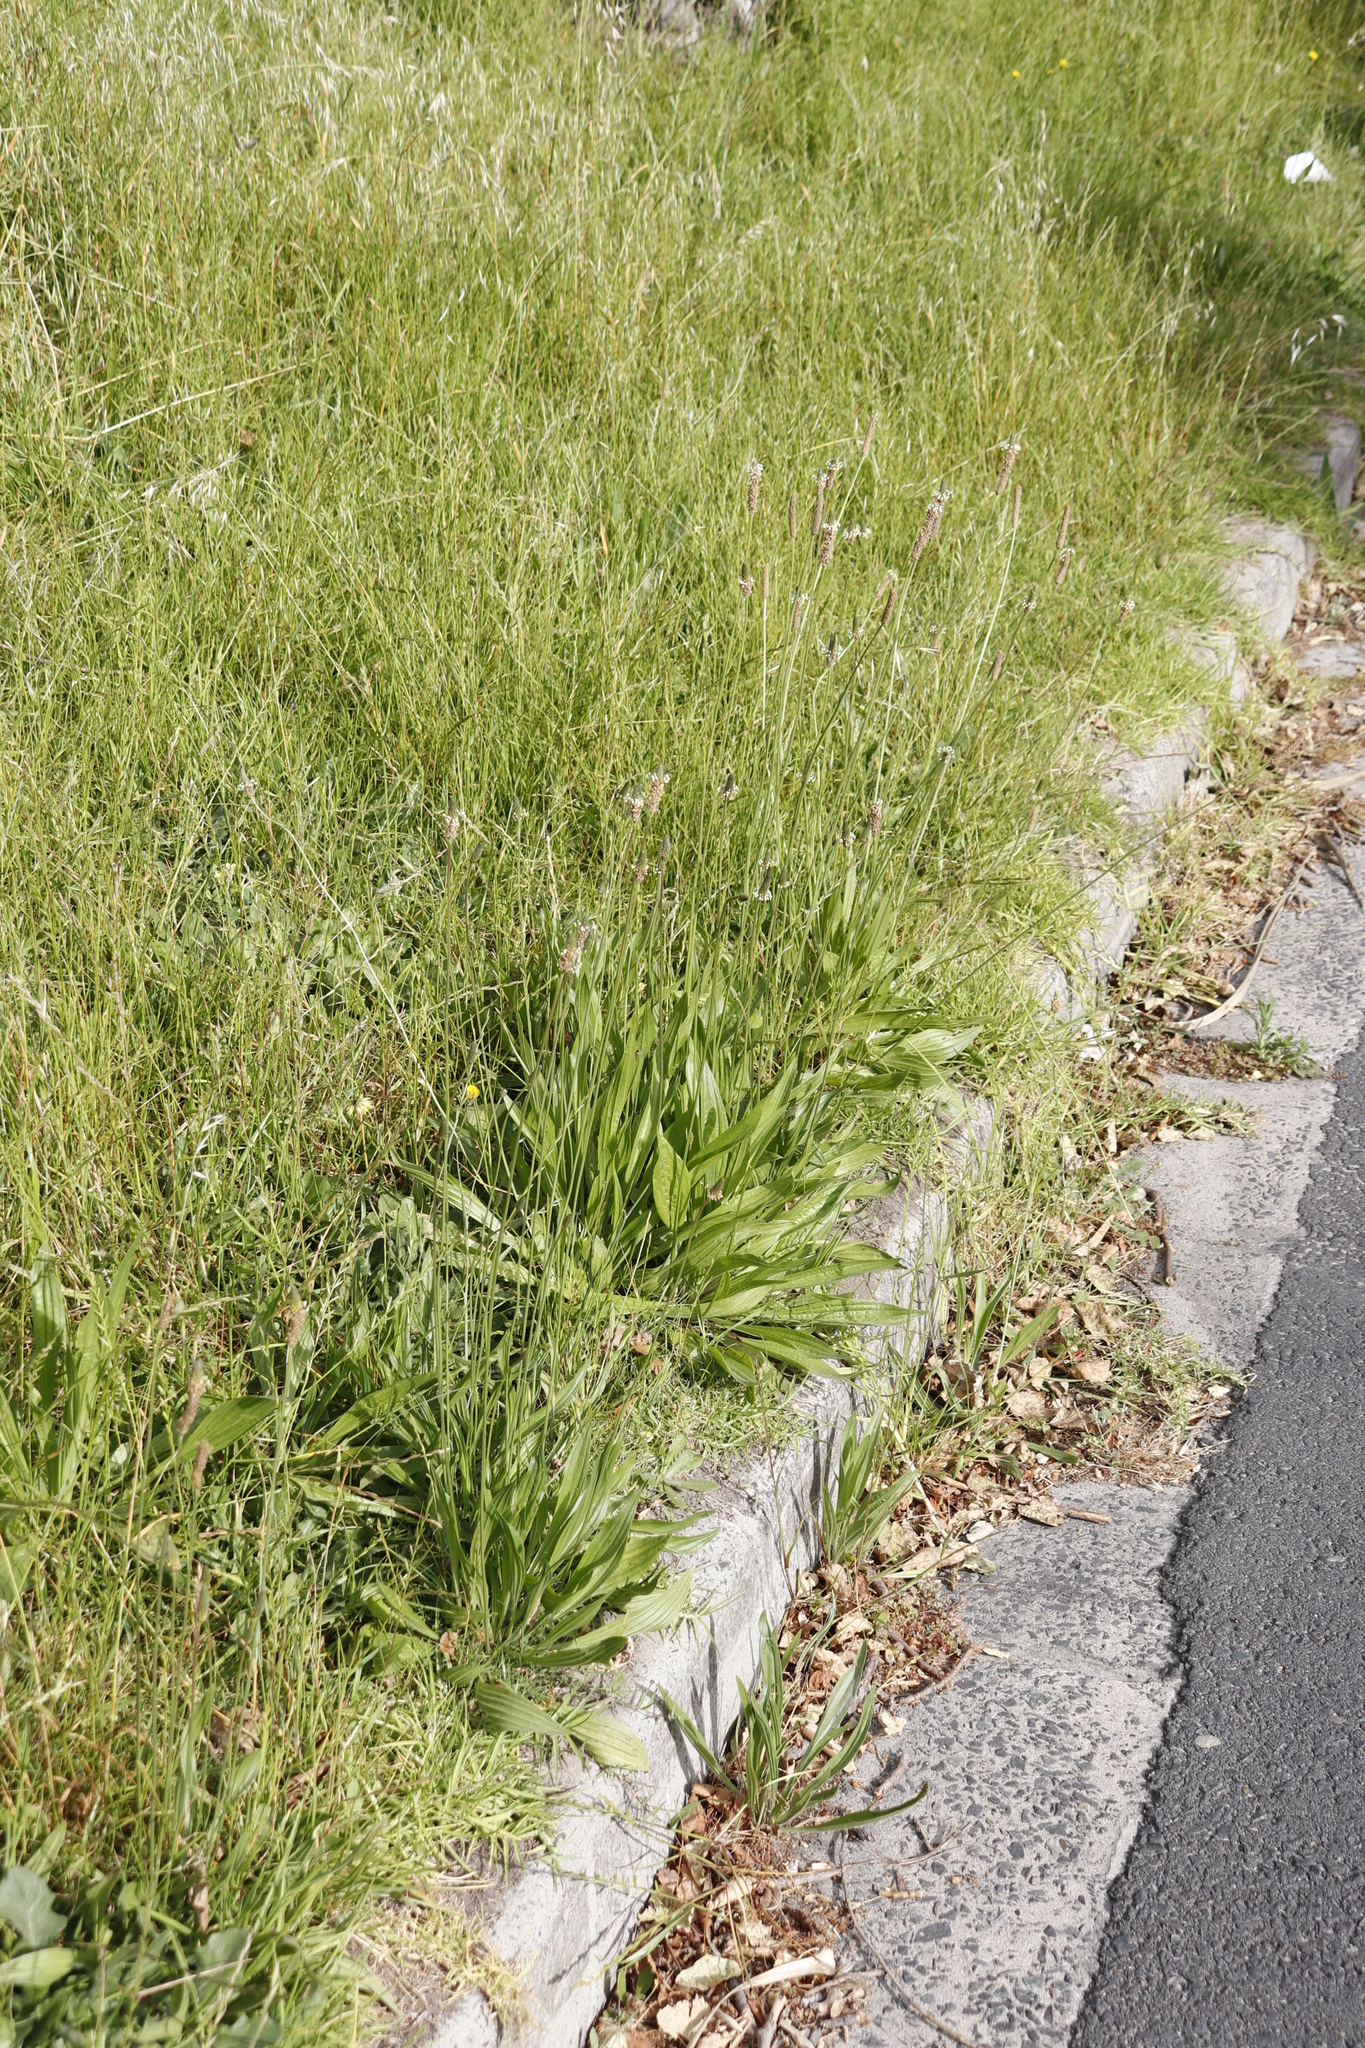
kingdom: Plantae
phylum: Tracheophyta
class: Magnoliopsida
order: Lamiales
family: Plantaginaceae
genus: Plantago
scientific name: Plantago lanceolata
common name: Ribwort plantain
